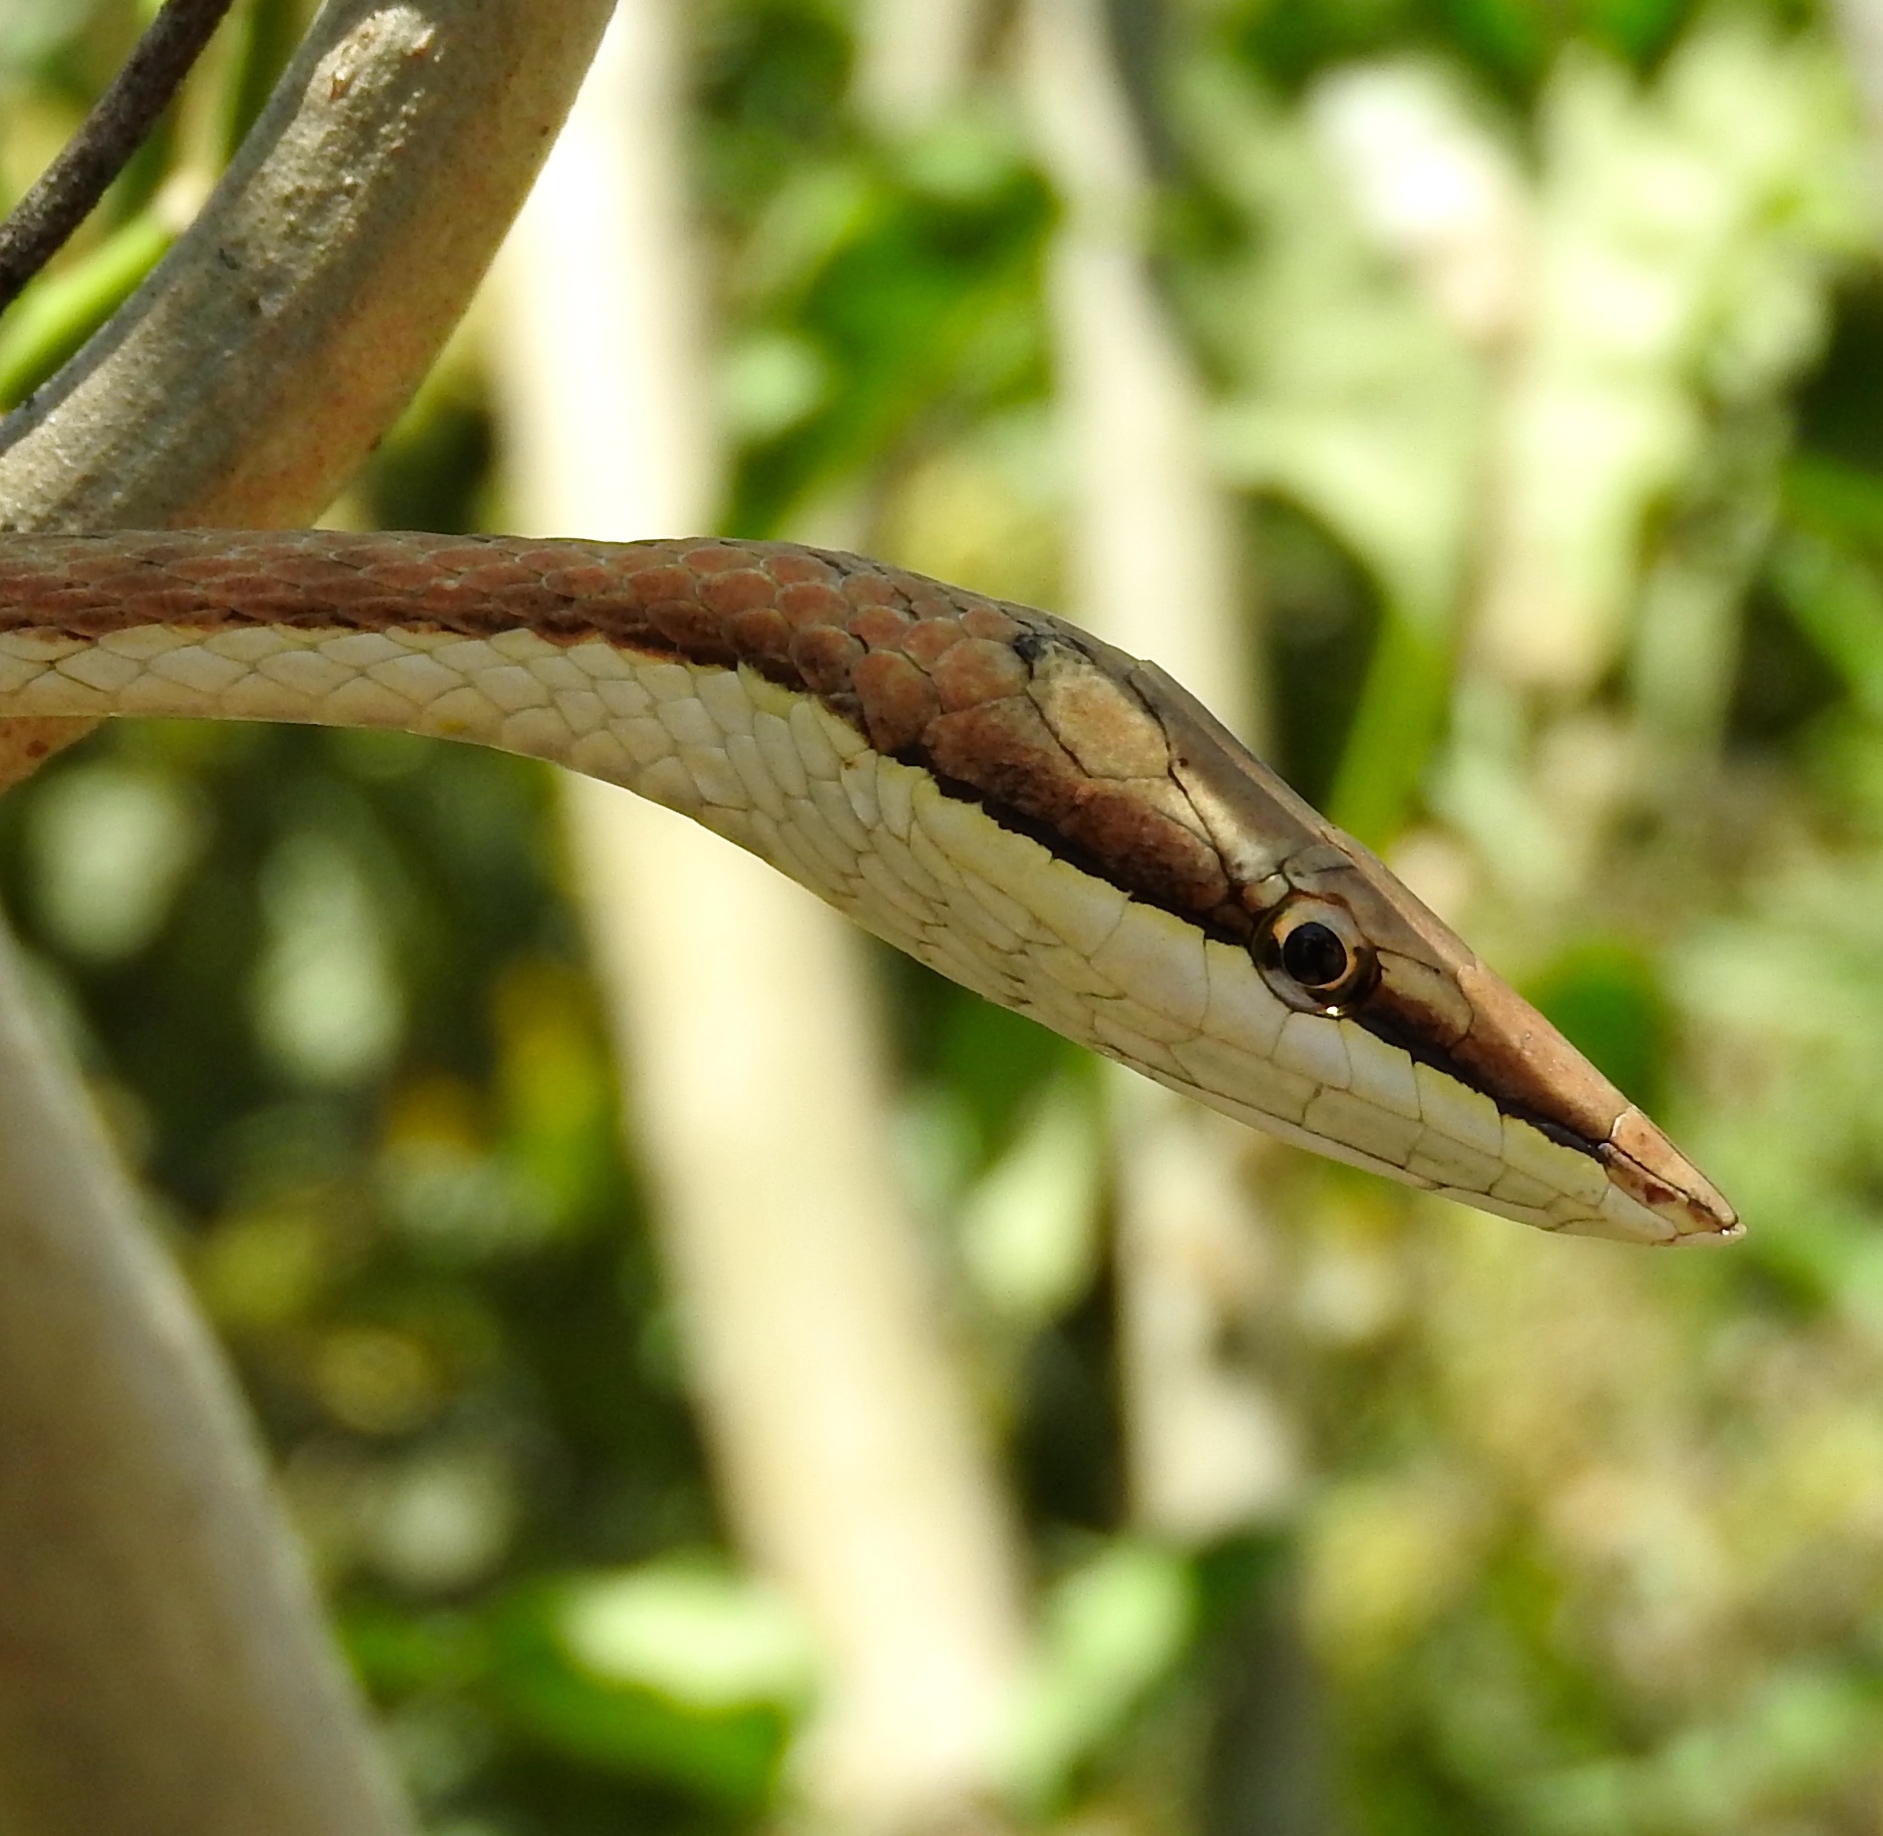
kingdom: Animalia
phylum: Chordata
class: Squamata
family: Colubridae
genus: Oxybelis
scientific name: Oxybelis microphthalmus
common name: Thrornscrub vine snake
